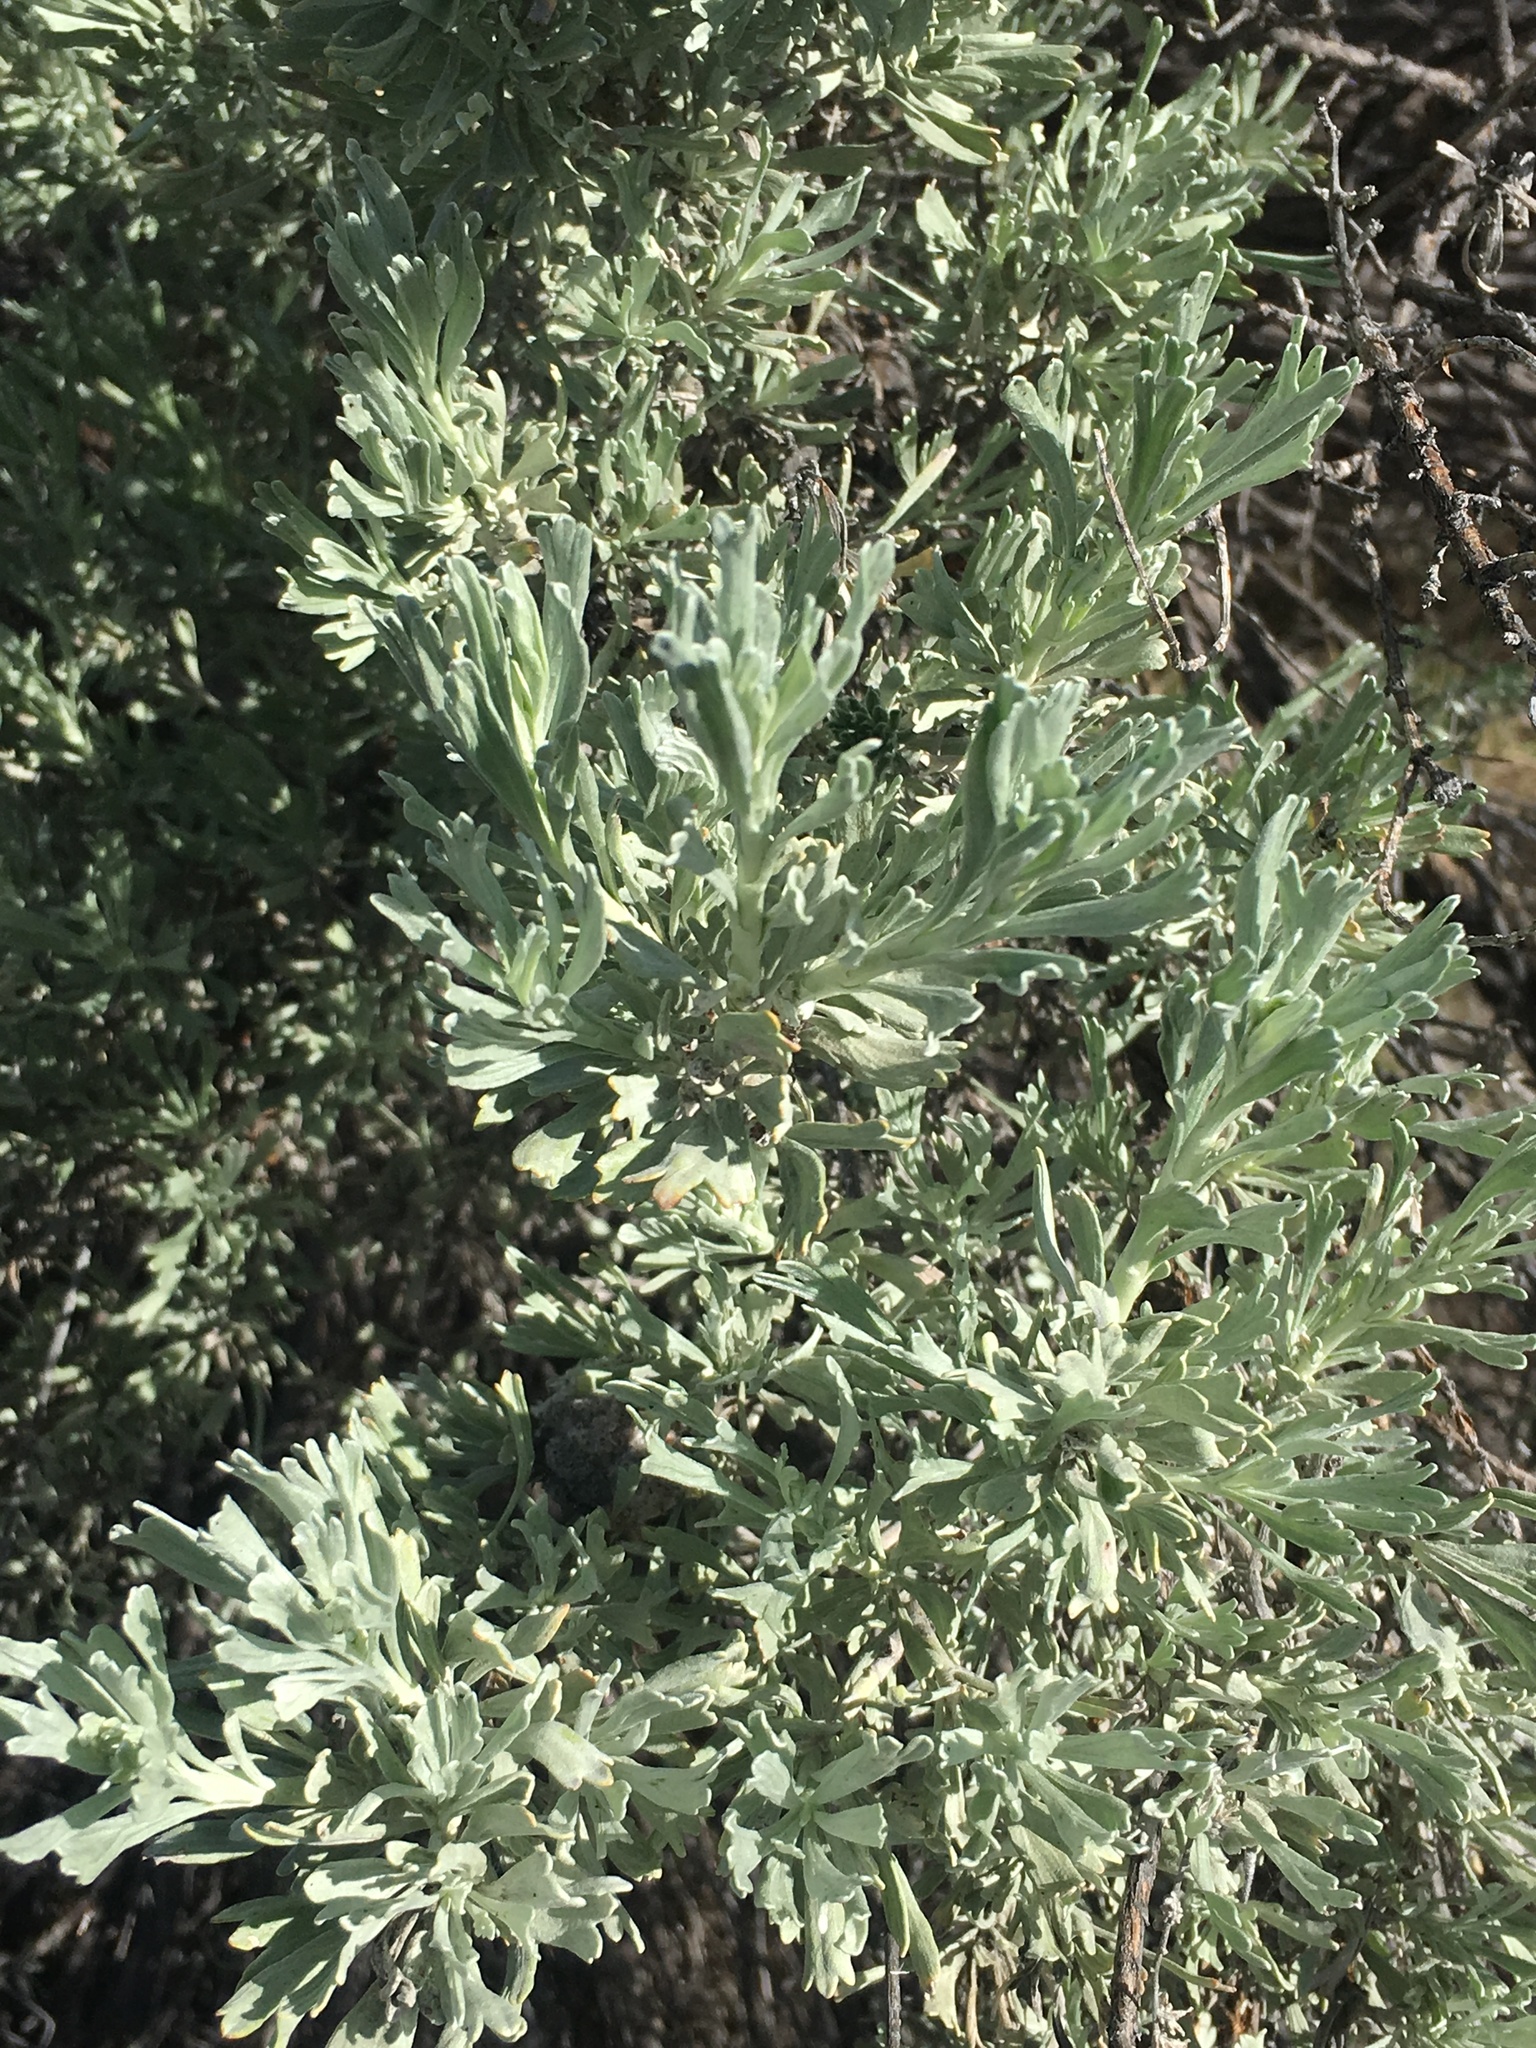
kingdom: Plantae
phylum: Tracheophyta
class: Magnoliopsida
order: Asterales
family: Asteraceae
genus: Artemisia
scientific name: Artemisia tridentata
